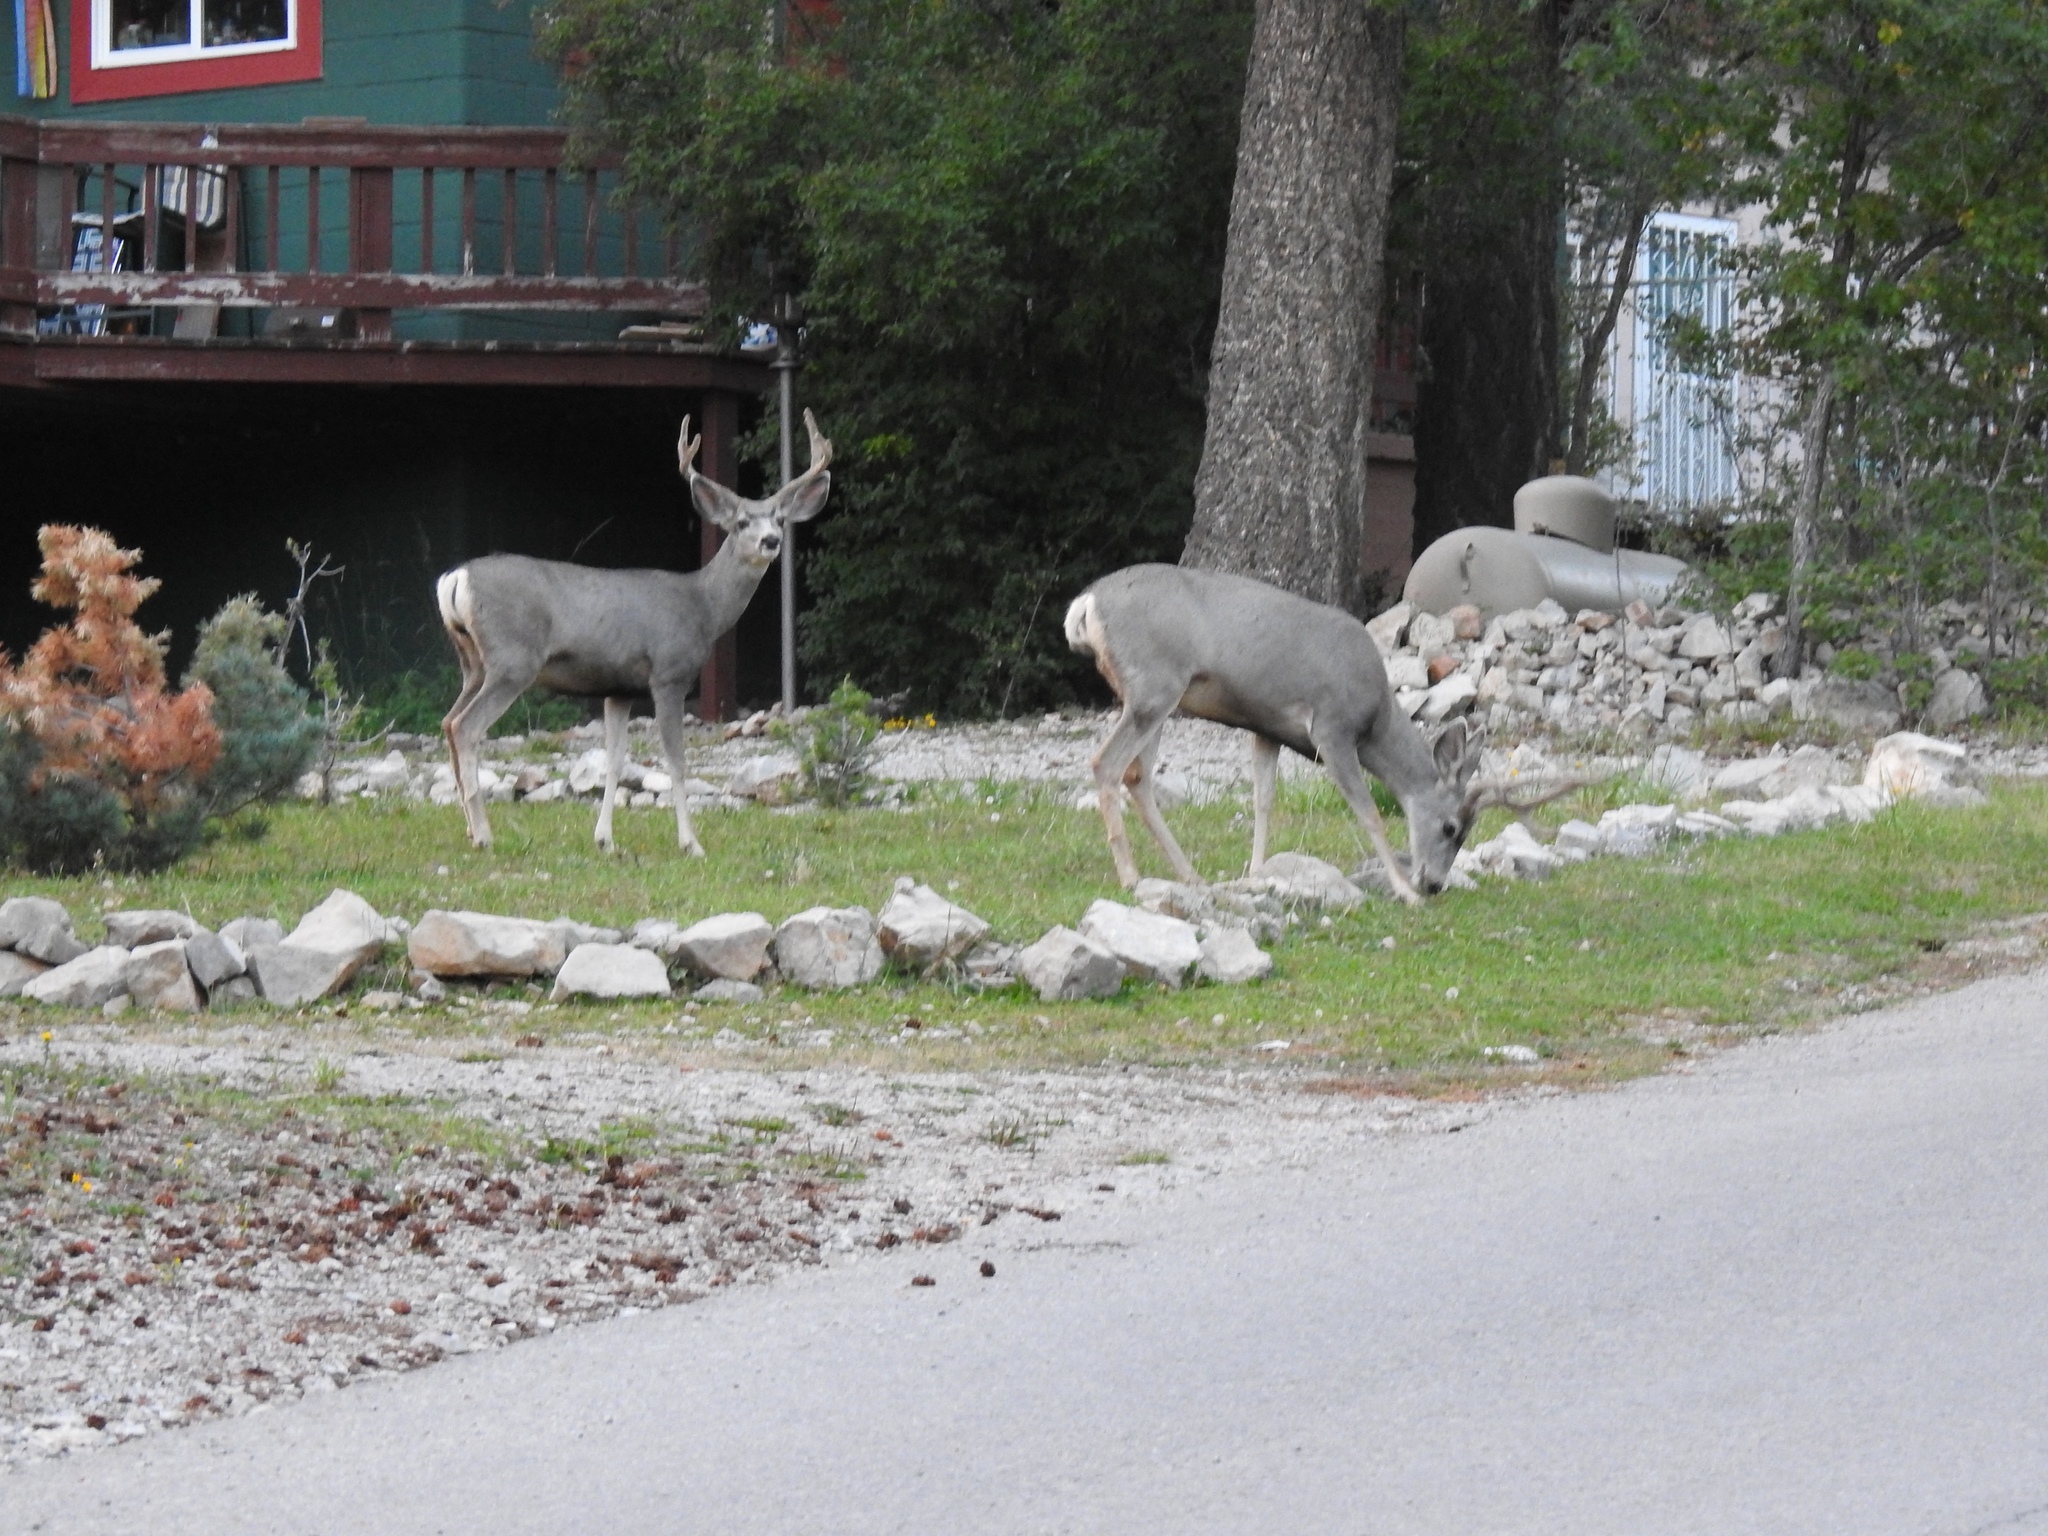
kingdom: Animalia
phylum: Chordata
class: Mammalia
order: Artiodactyla
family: Cervidae
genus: Odocoileus
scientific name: Odocoileus hemionus
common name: Mule deer
